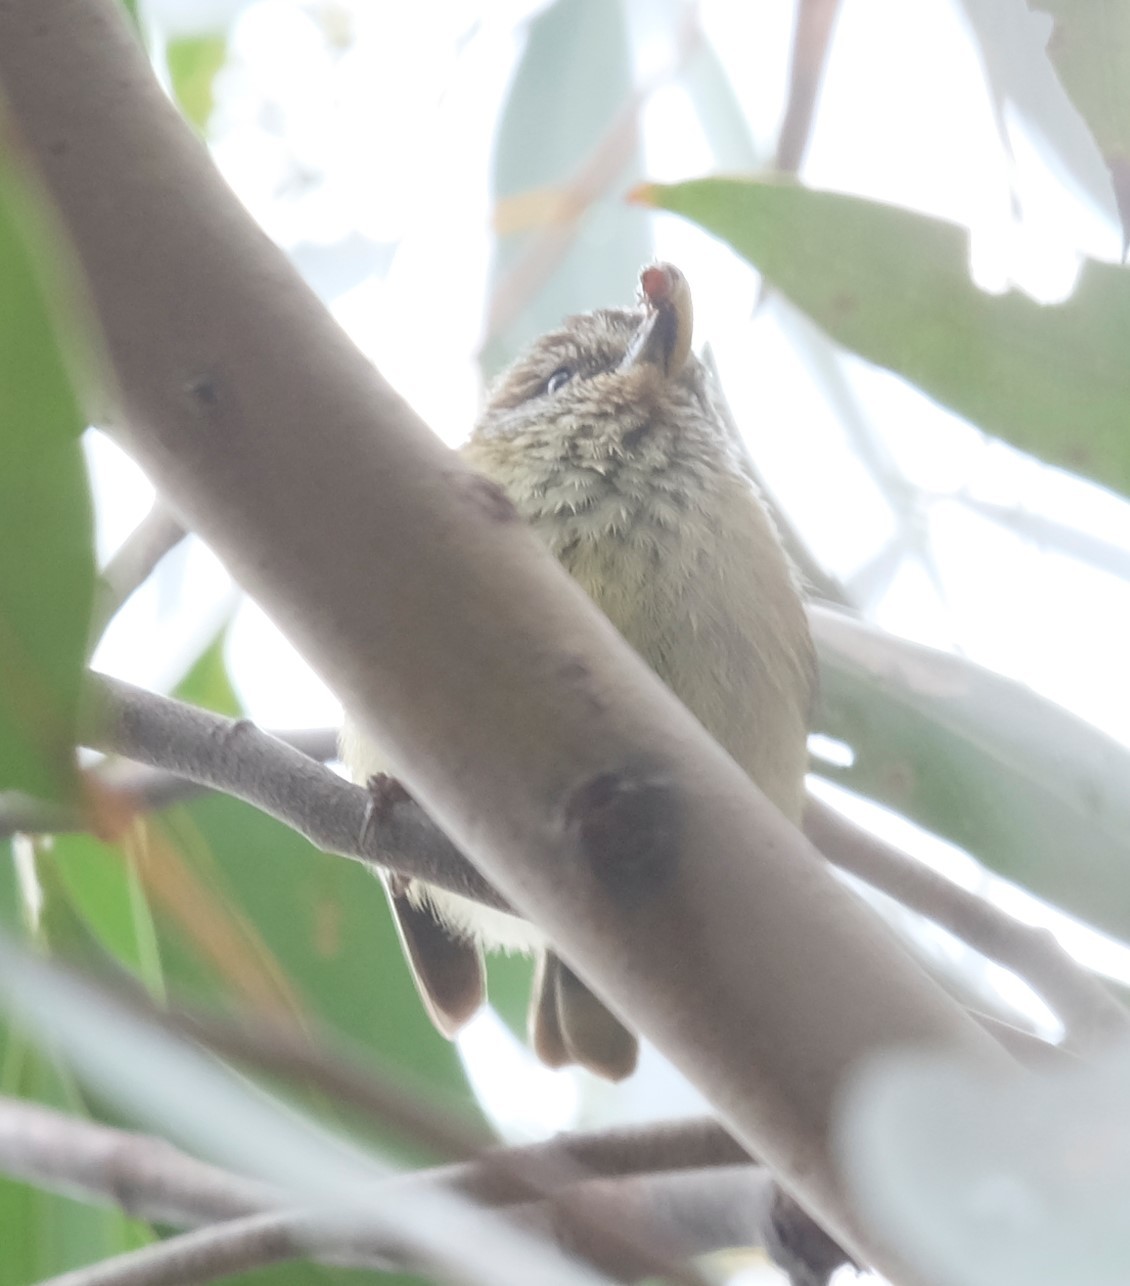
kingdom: Animalia
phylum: Chordata
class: Aves
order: Passeriformes
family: Acanthizidae
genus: Acanthiza
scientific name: Acanthiza lineata
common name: Striated thornbill
